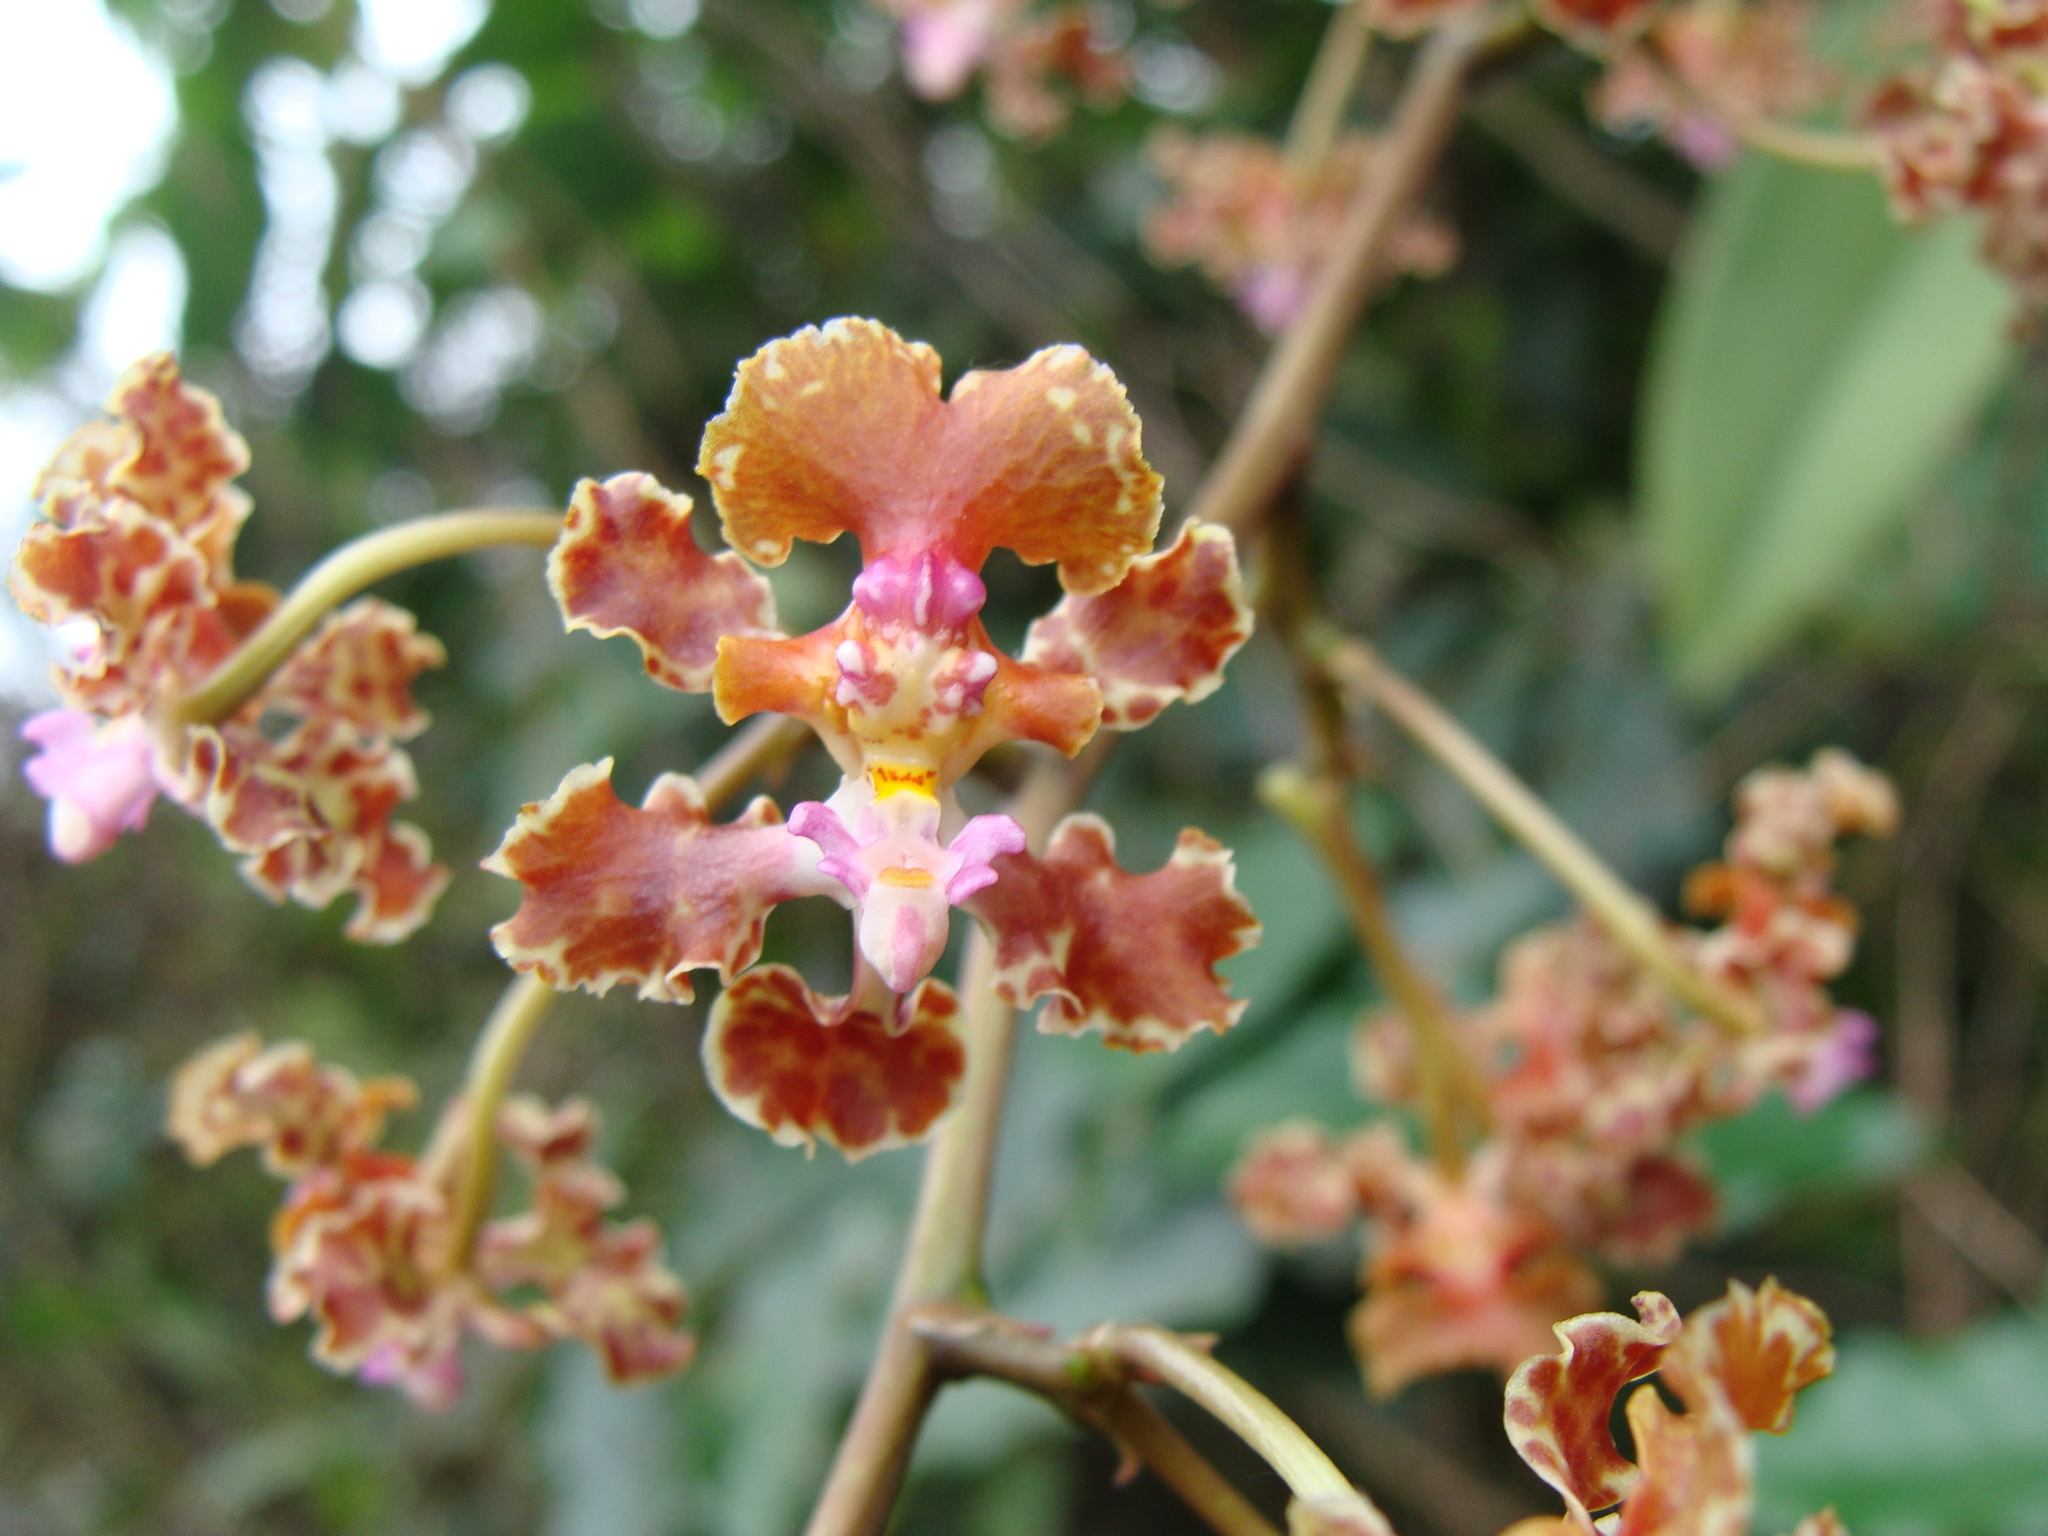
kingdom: Plantae
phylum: Tracheophyta
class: Liliopsida
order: Asparagales
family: Orchidaceae
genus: Trichocentrum
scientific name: Trichocentrum luridum
